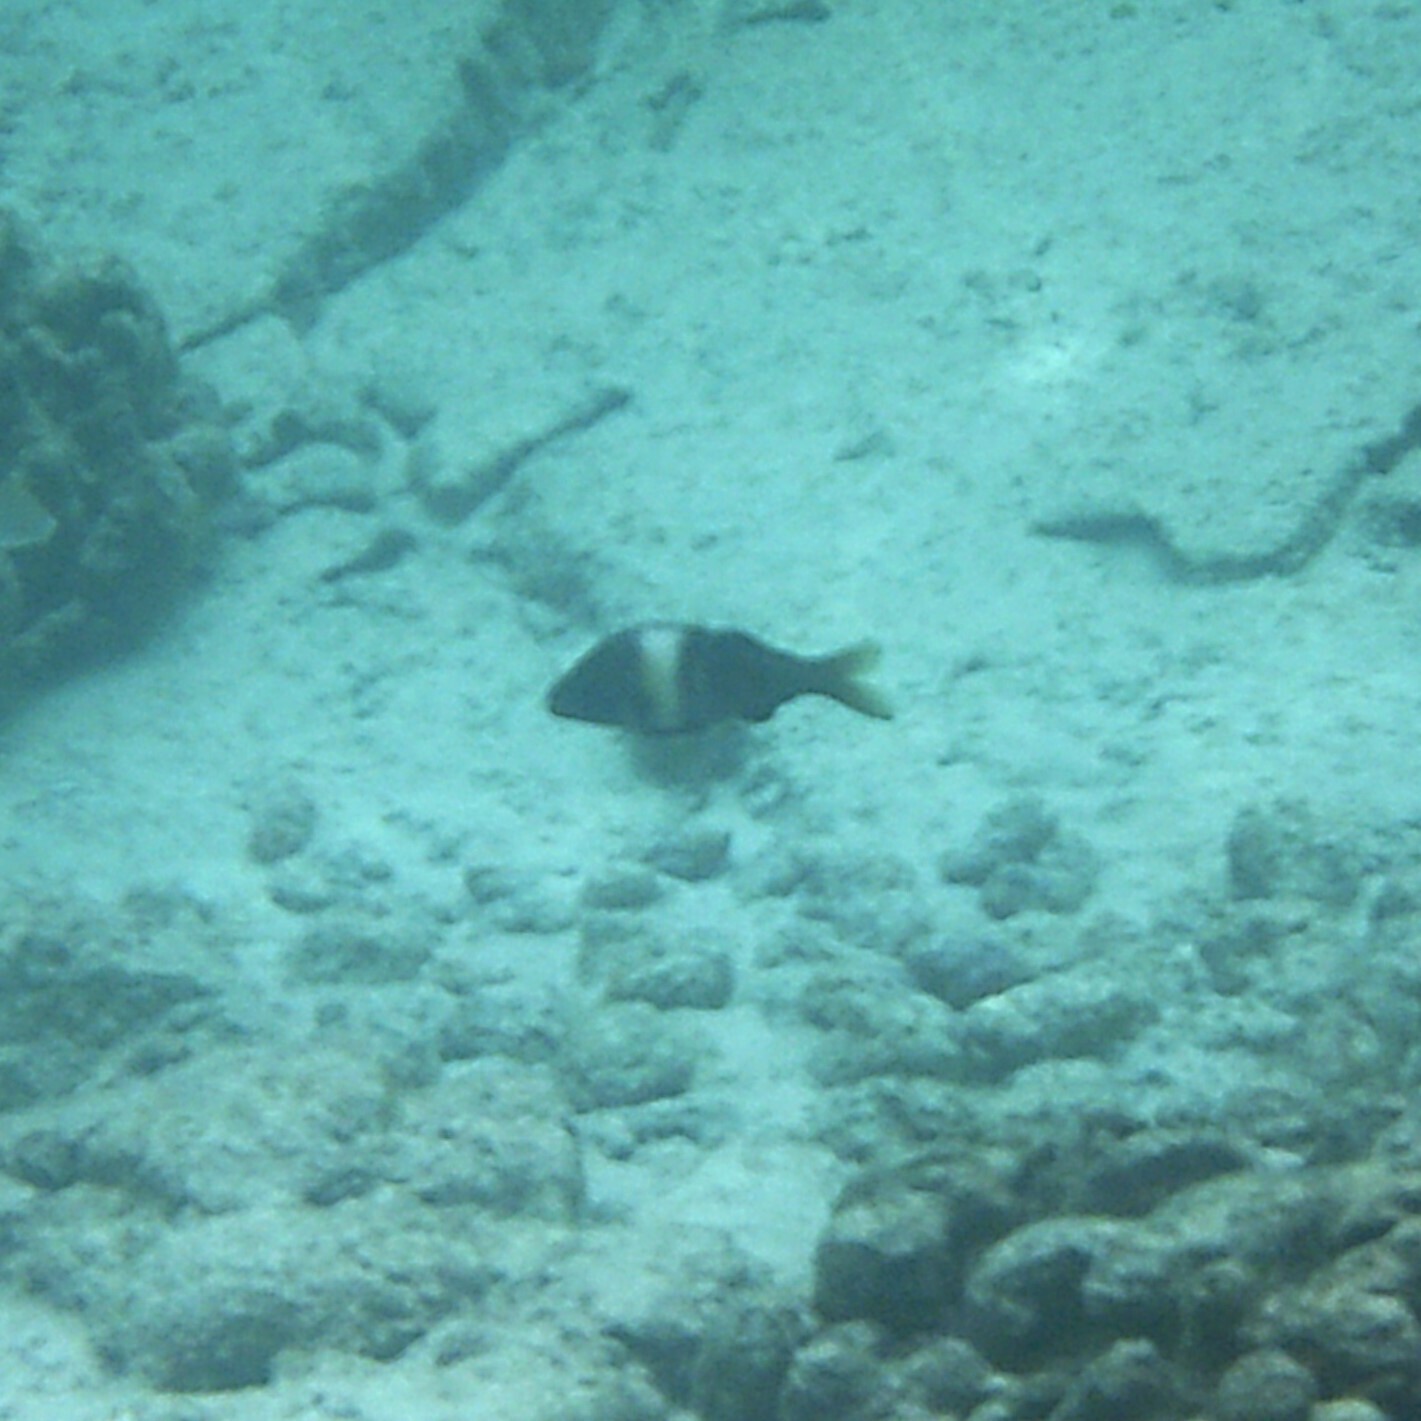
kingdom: Animalia
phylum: Chordata
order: Perciformes
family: Mullidae
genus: Parupeneus
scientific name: Parupeneus multifasciatus
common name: Manybar goatfish
